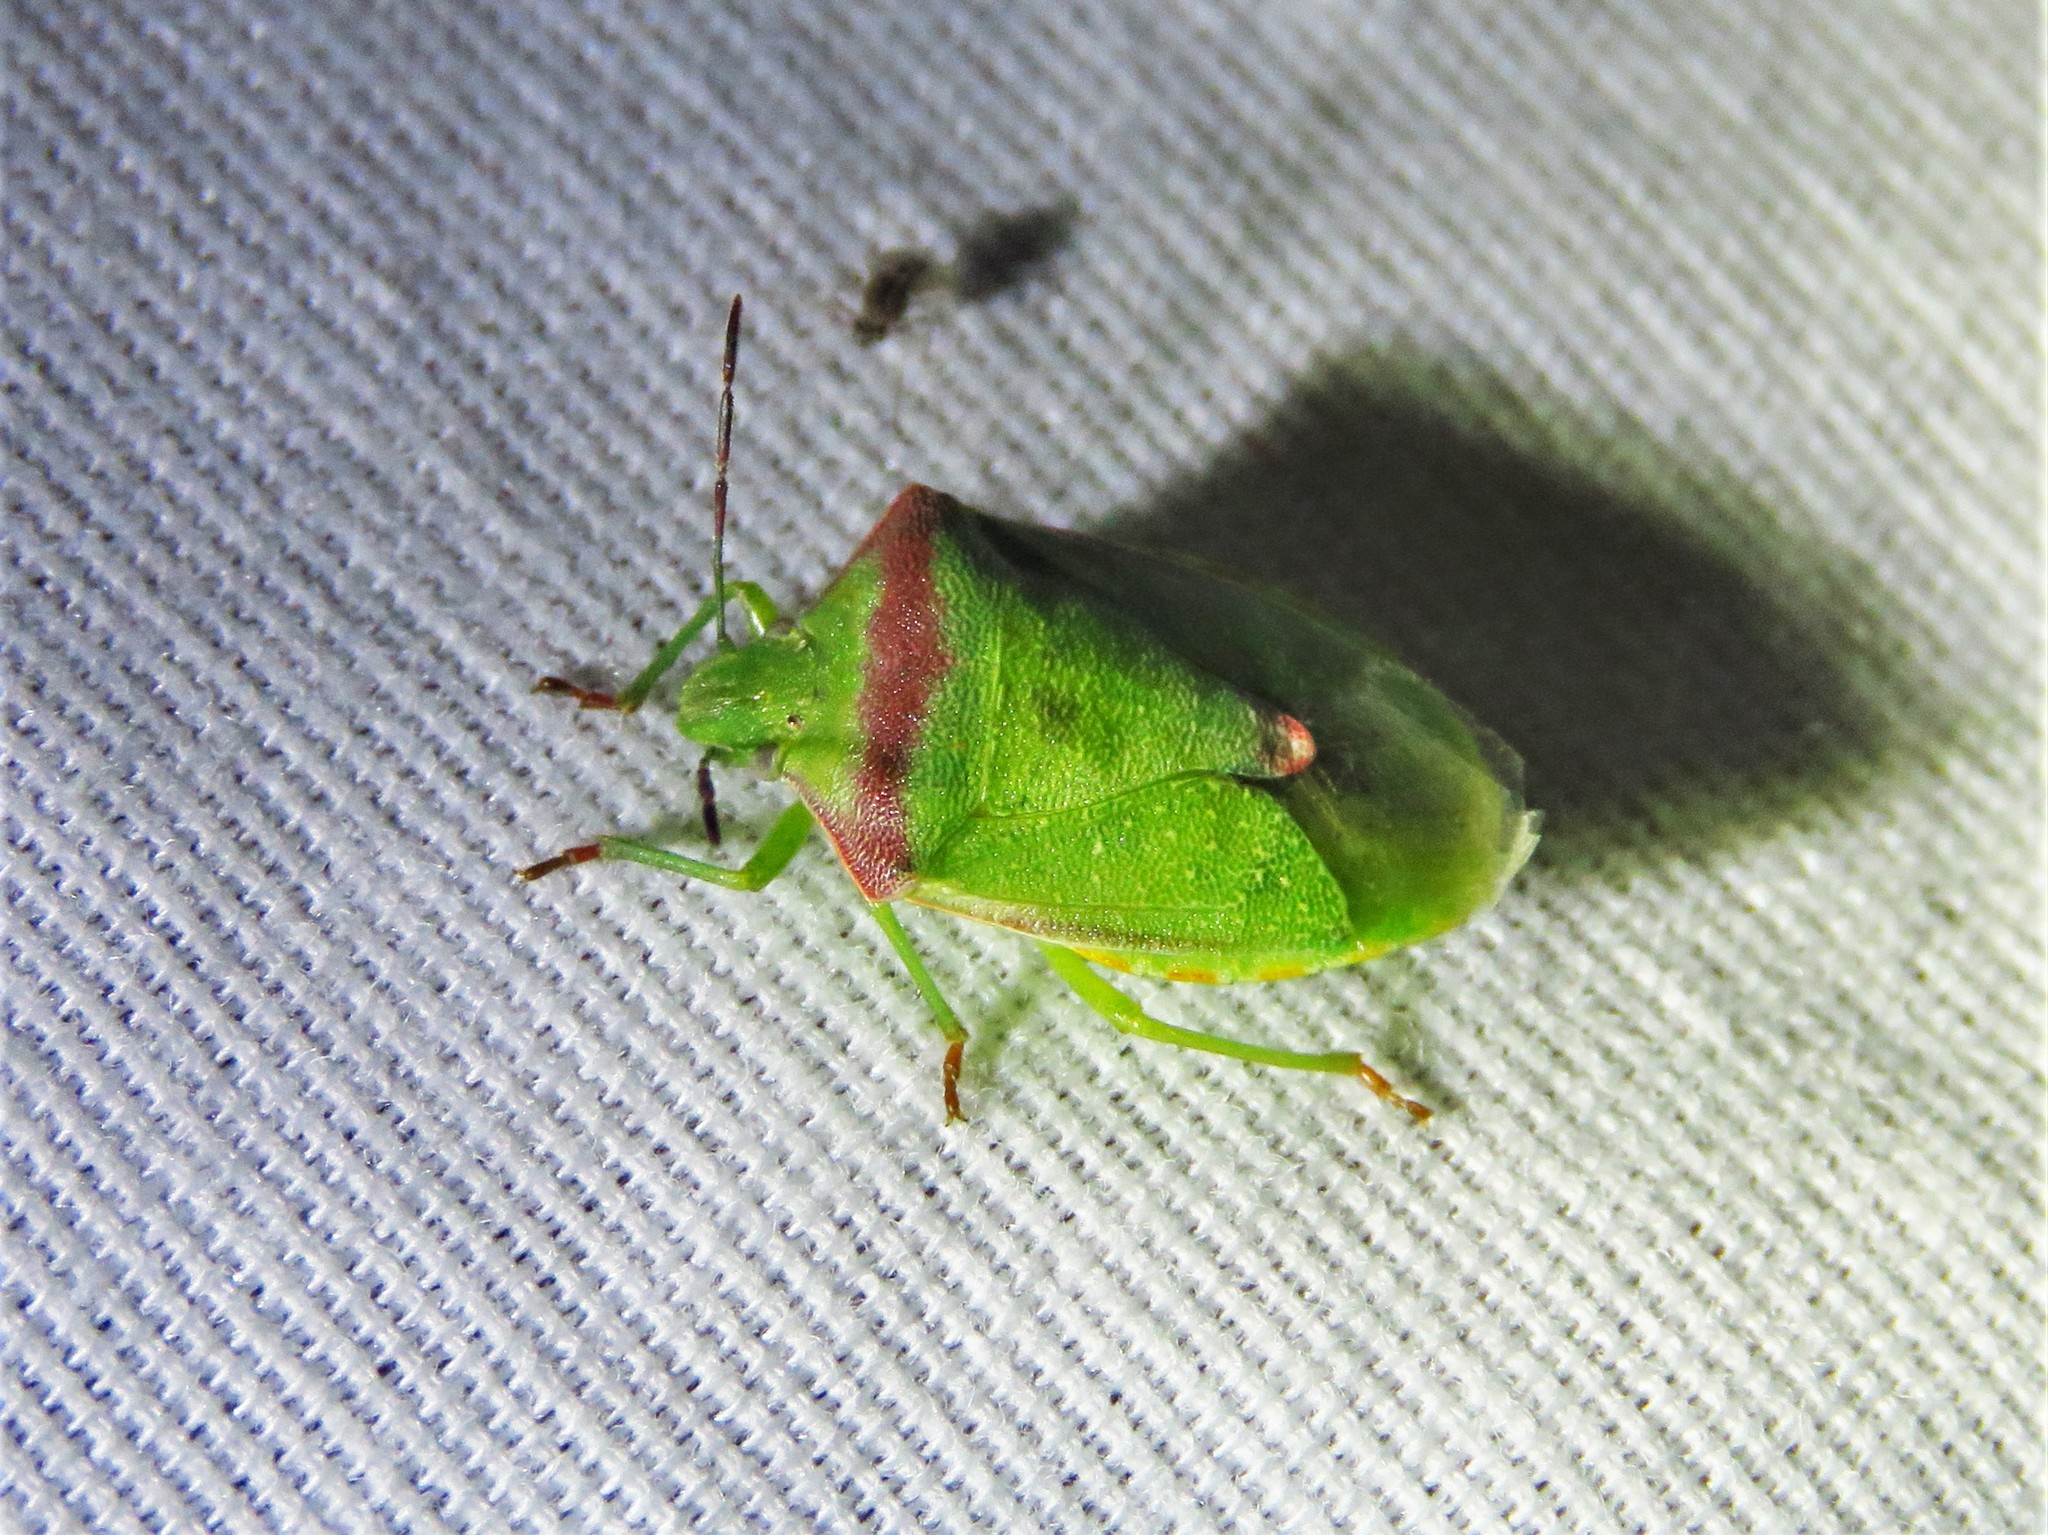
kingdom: Animalia
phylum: Arthropoda
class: Insecta
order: Hemiptera
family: Pentatomidae
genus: Thyanta
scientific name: Thyanta custator
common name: Stink bug
